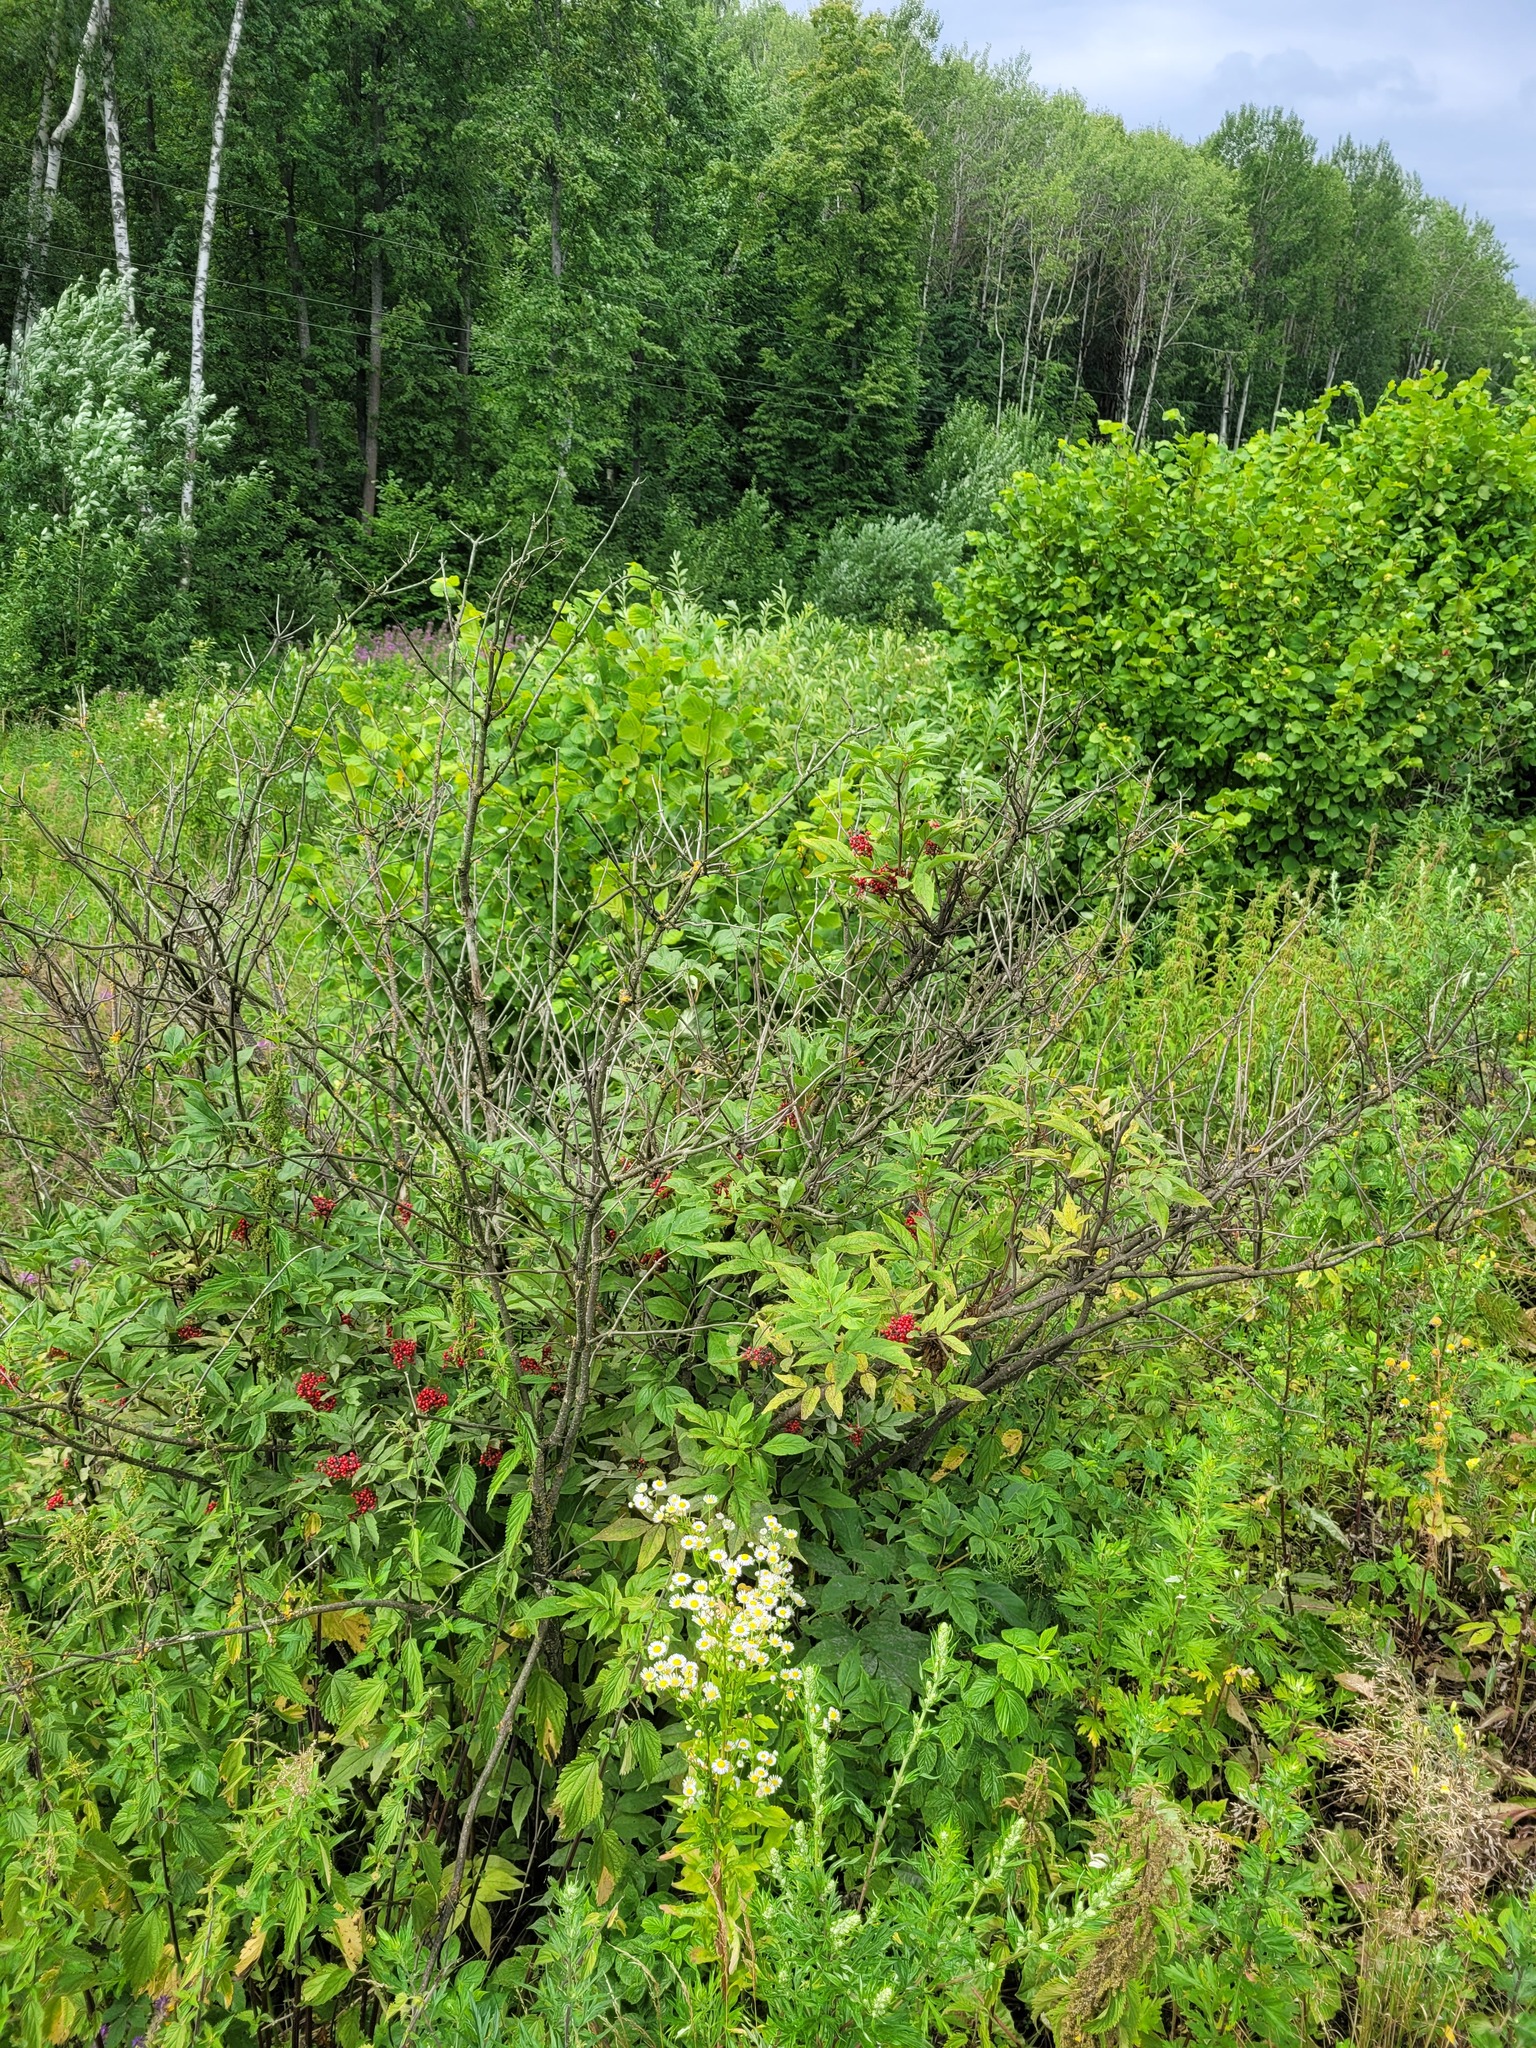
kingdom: Plantae
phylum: Tracheophyta
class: Magnoliopsida
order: Dipsacales
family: Viburnaceae
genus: Sambucus
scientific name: Sambucus racemosa
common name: Red-berried elder
